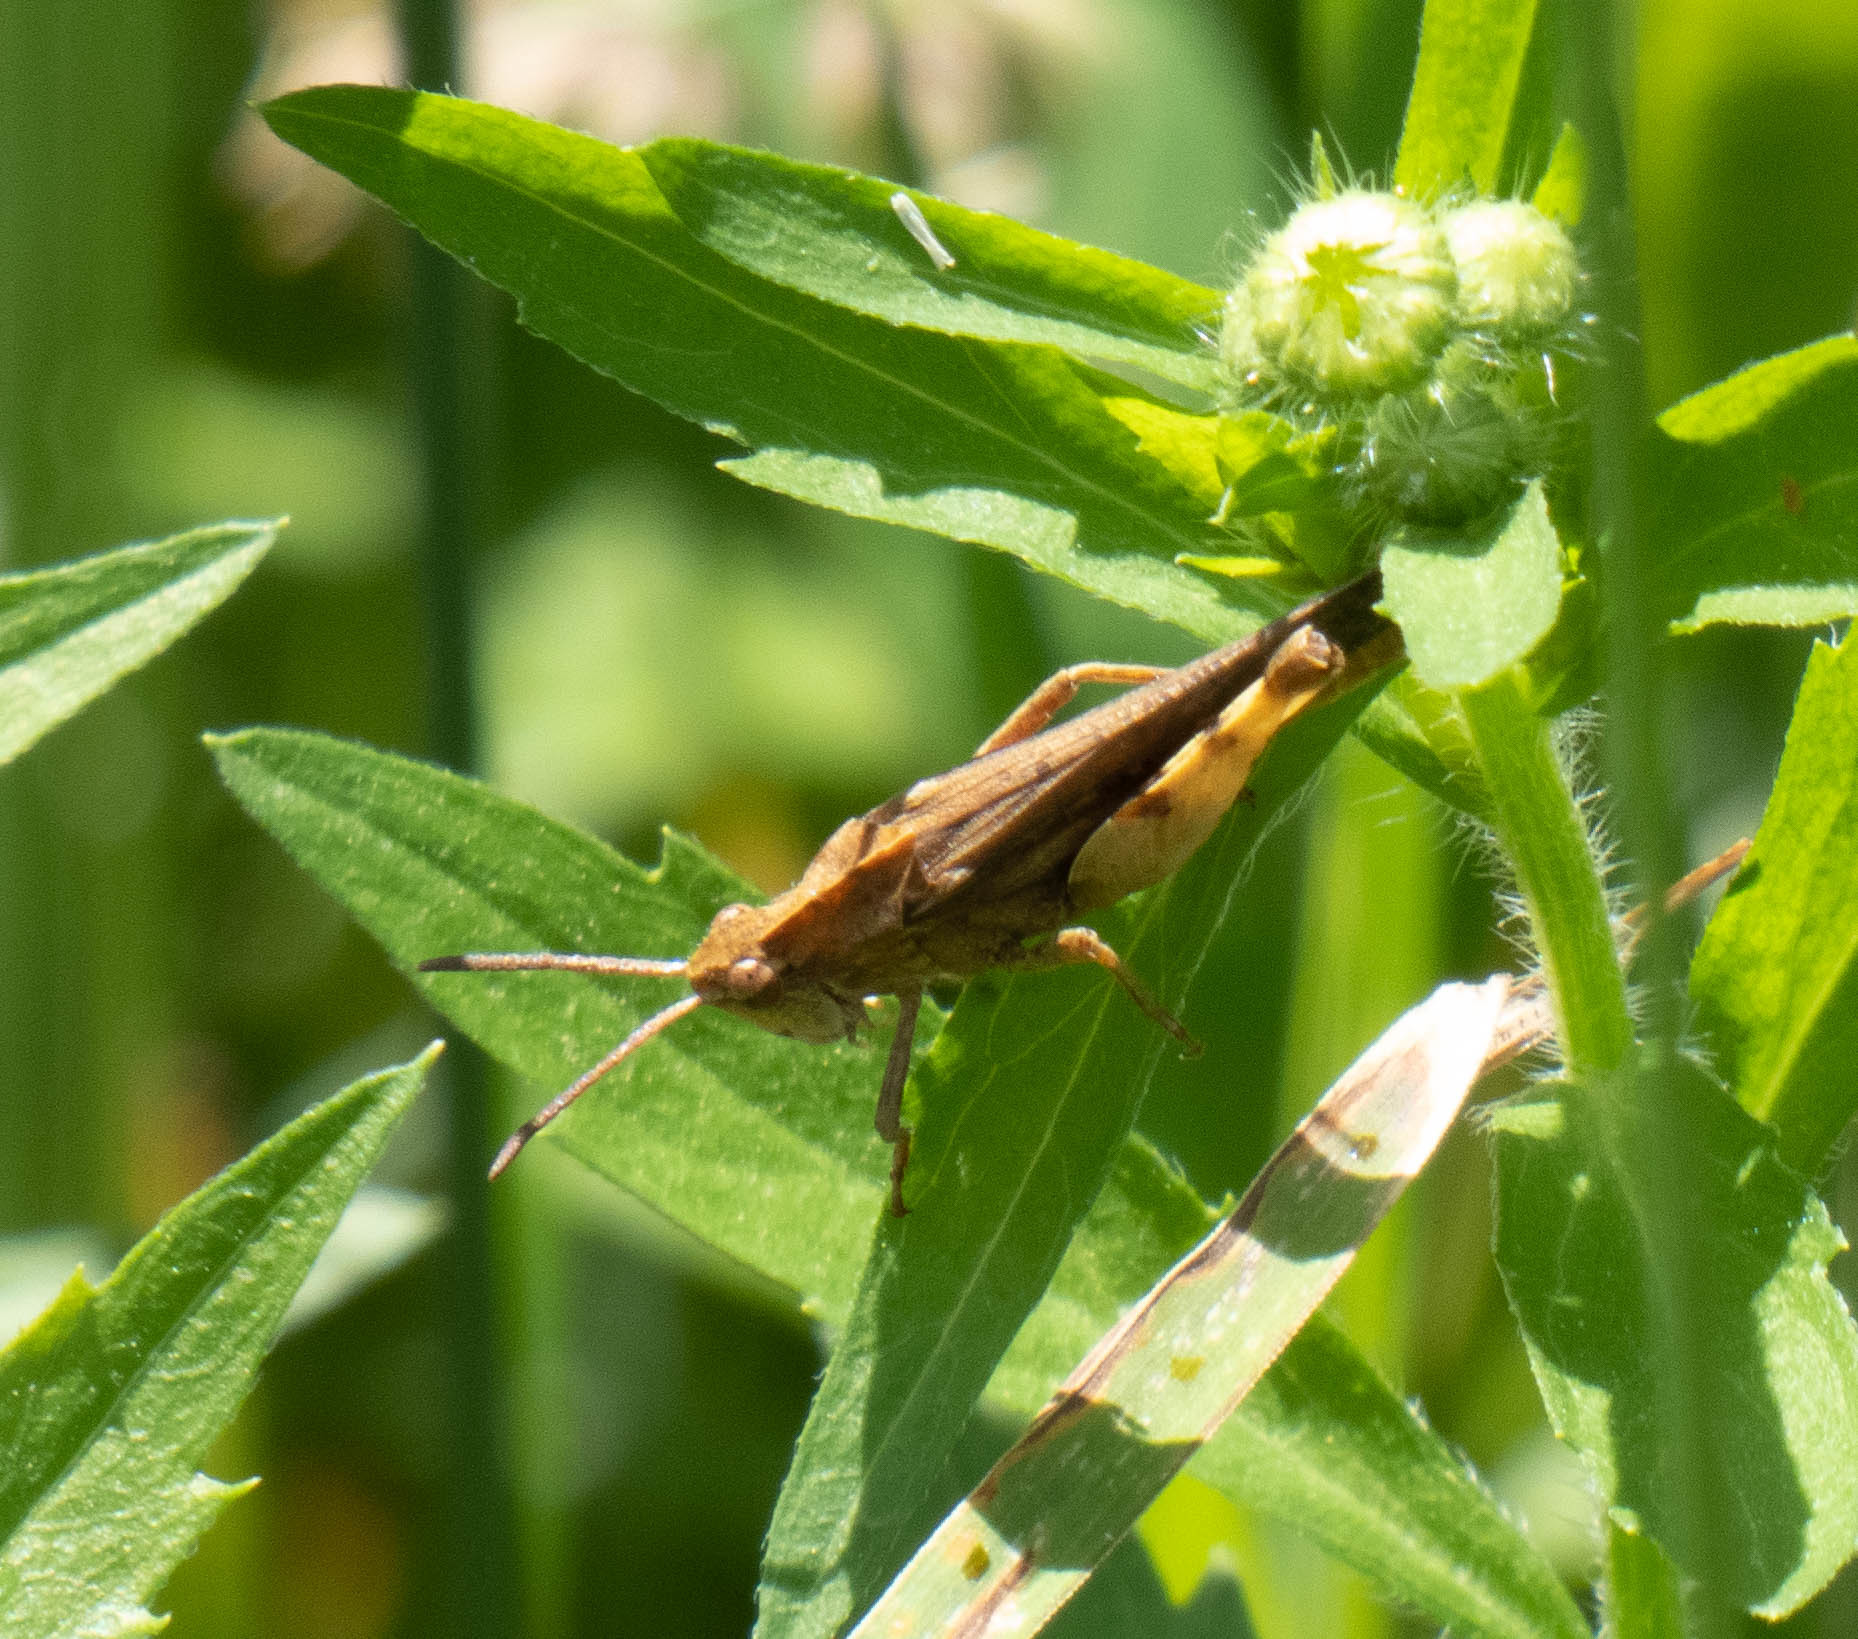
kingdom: Animalia
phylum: Arthropoda
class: Insecta
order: Orthoptera
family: Acrididae
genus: Chortophaga
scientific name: Chortophaga viridifasciata
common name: Green-striped grasshopper
